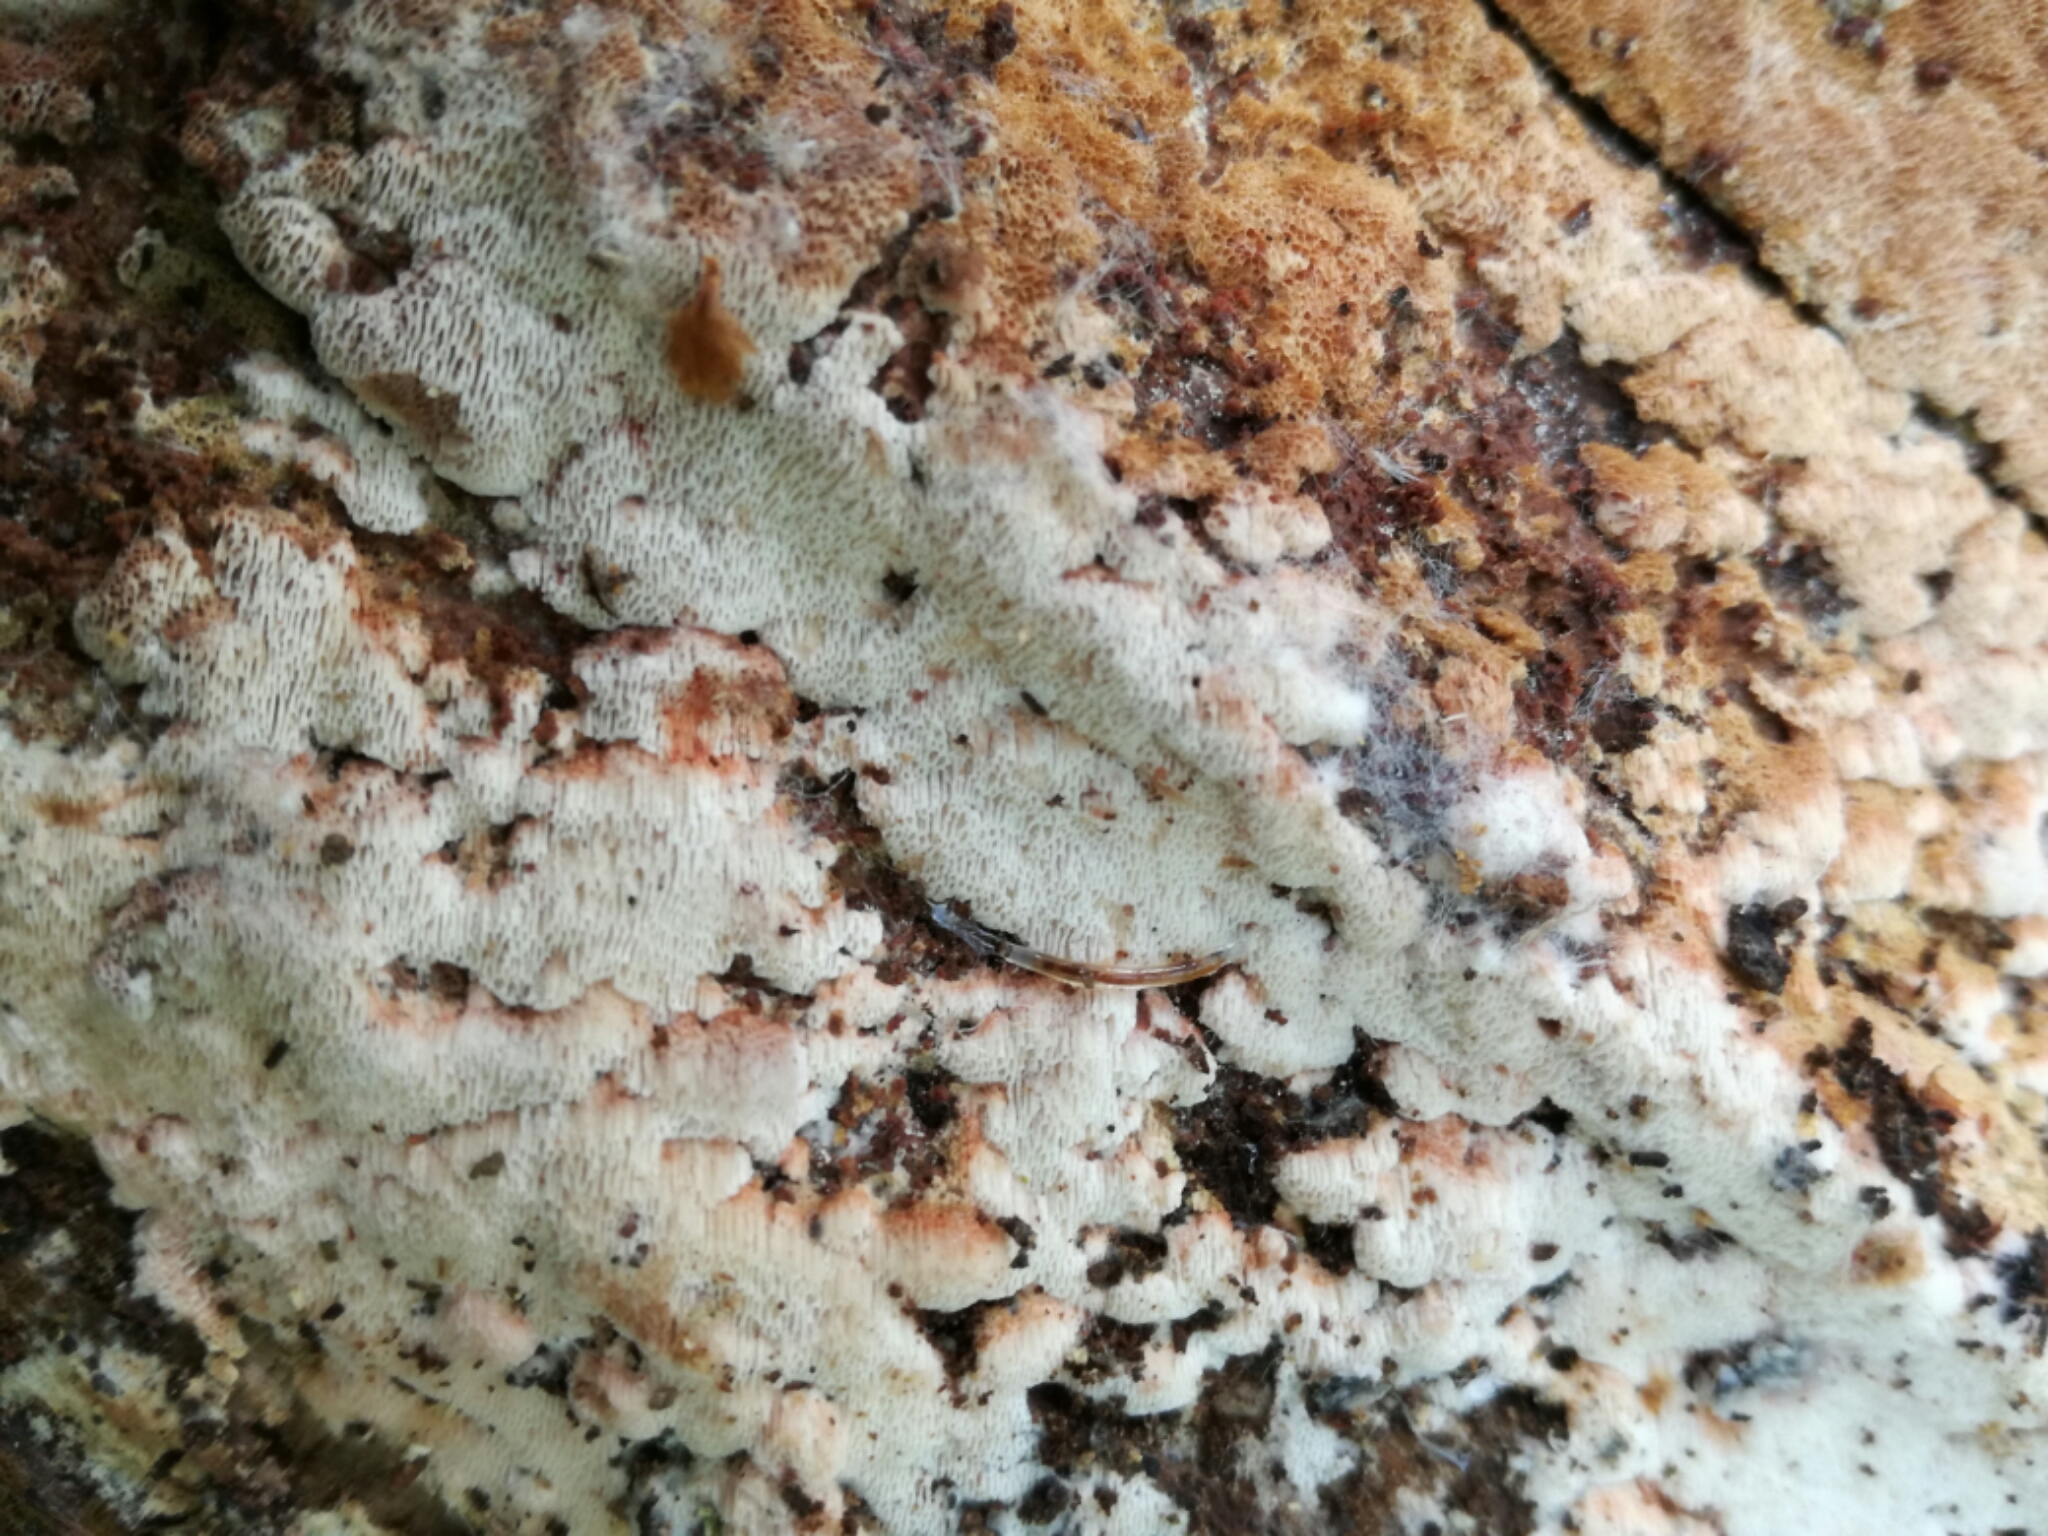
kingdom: Fungi
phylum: Basidiomycota
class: Agaricomycetes
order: Polyporales
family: Meruliaceae
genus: Mycoacia
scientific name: Mycoacia gilvescens
